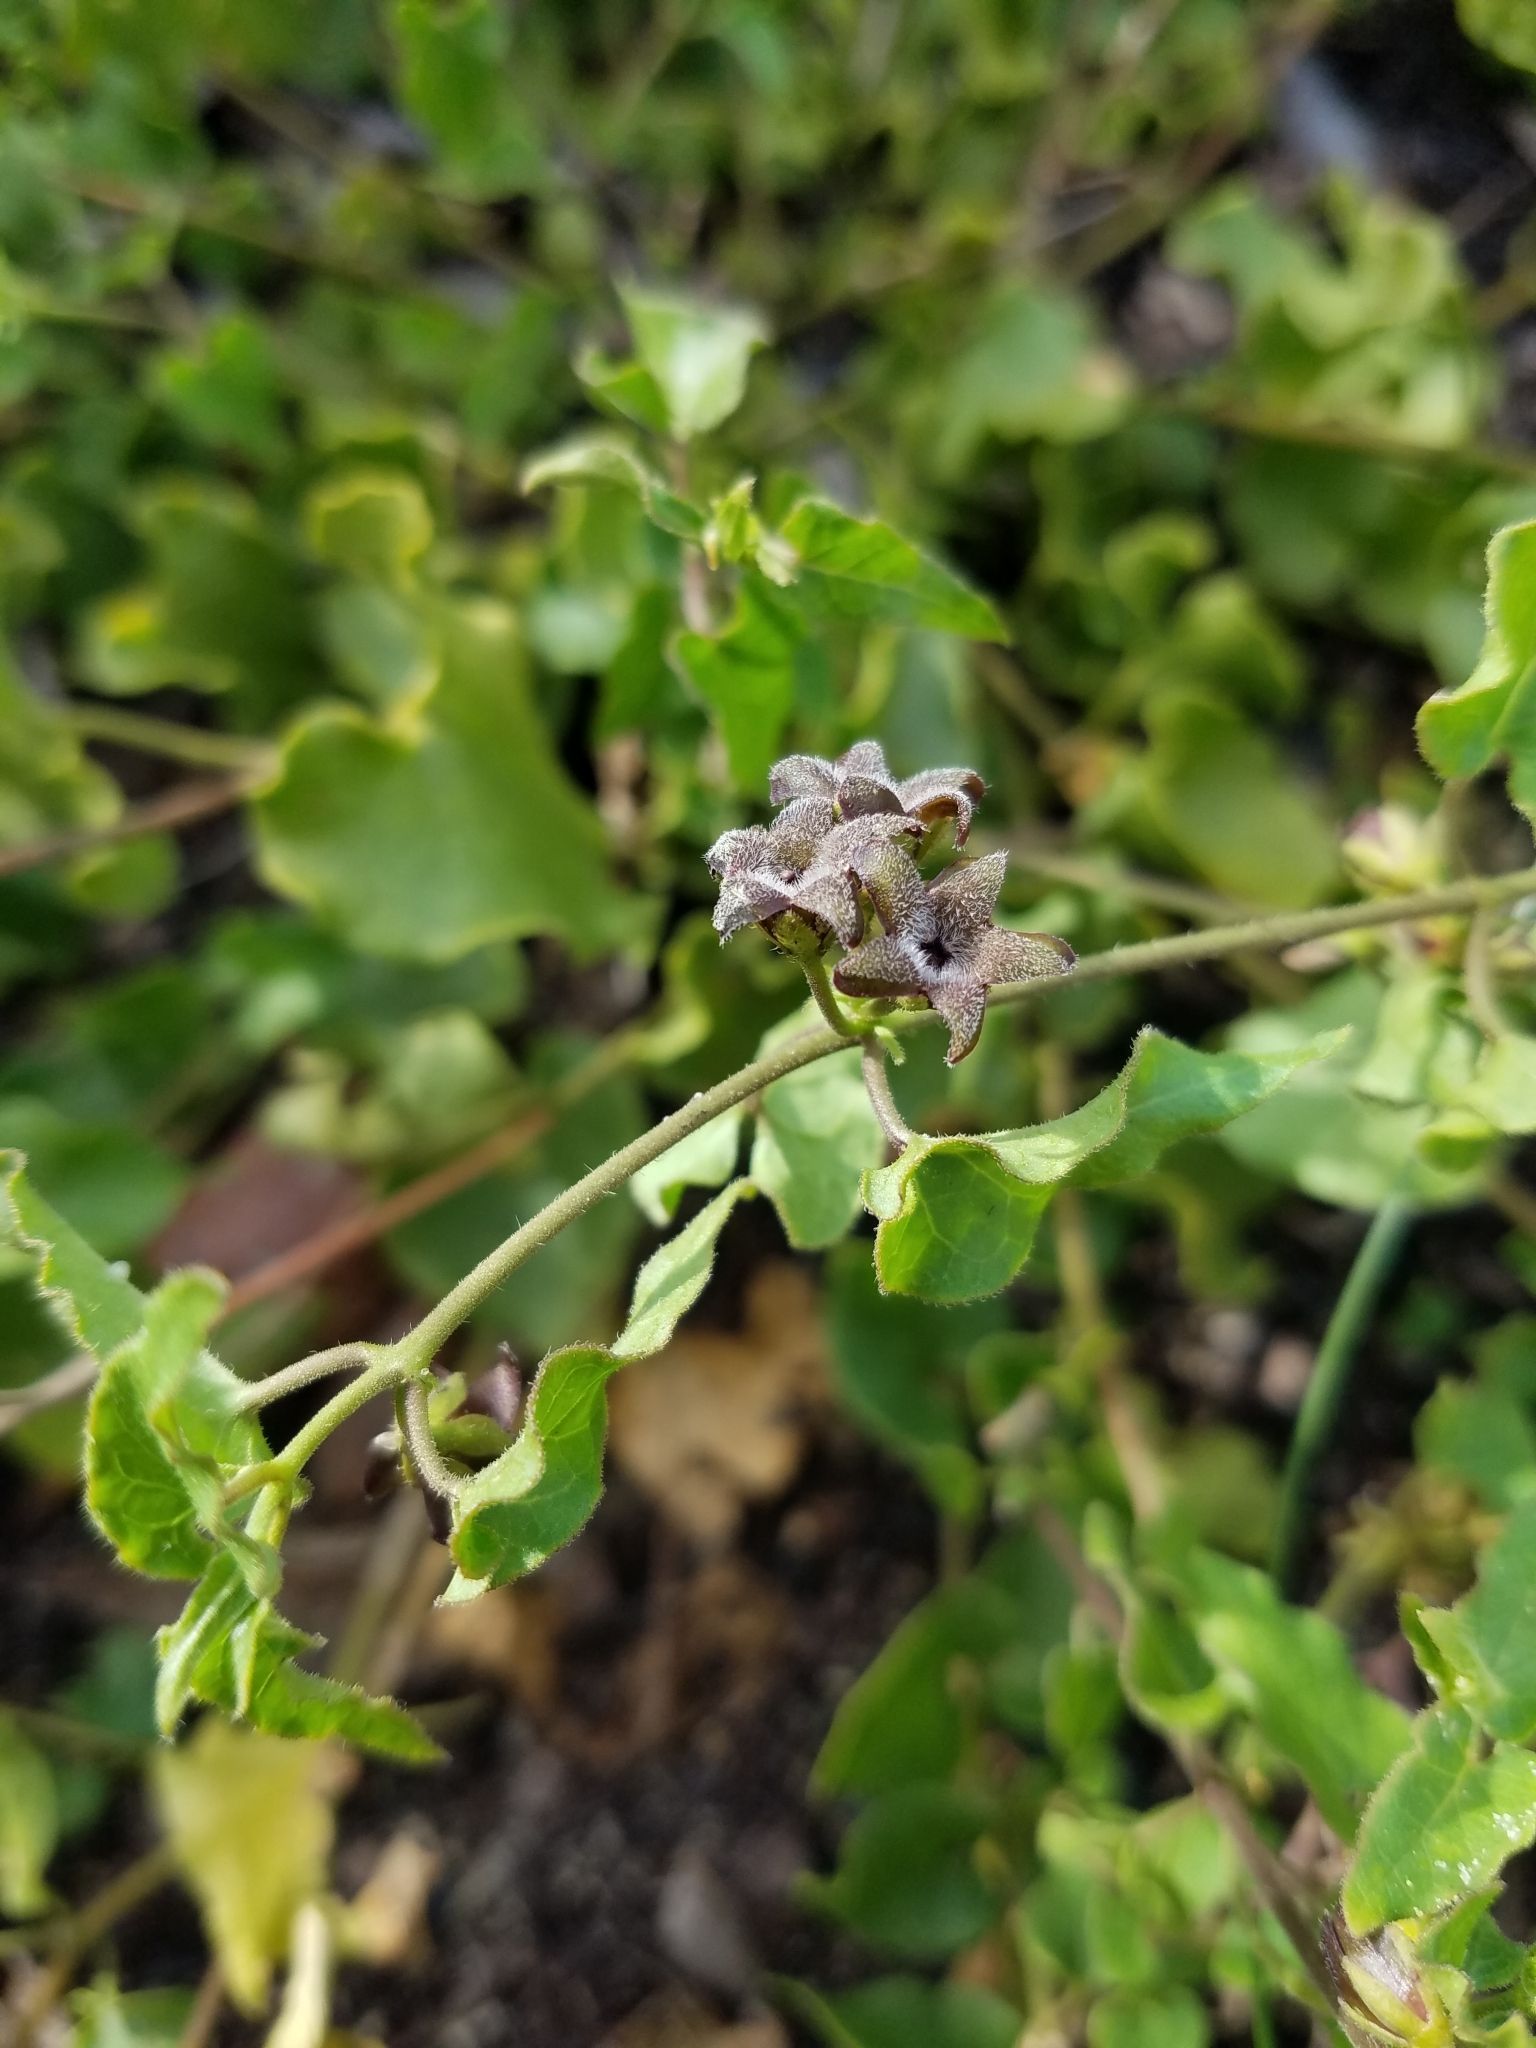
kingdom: Plantae
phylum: Tracheophyta
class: Magnoliopsida
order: Gentianales
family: Apocynaceae
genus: Chthamalia
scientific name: Chthamalia pubiflora
